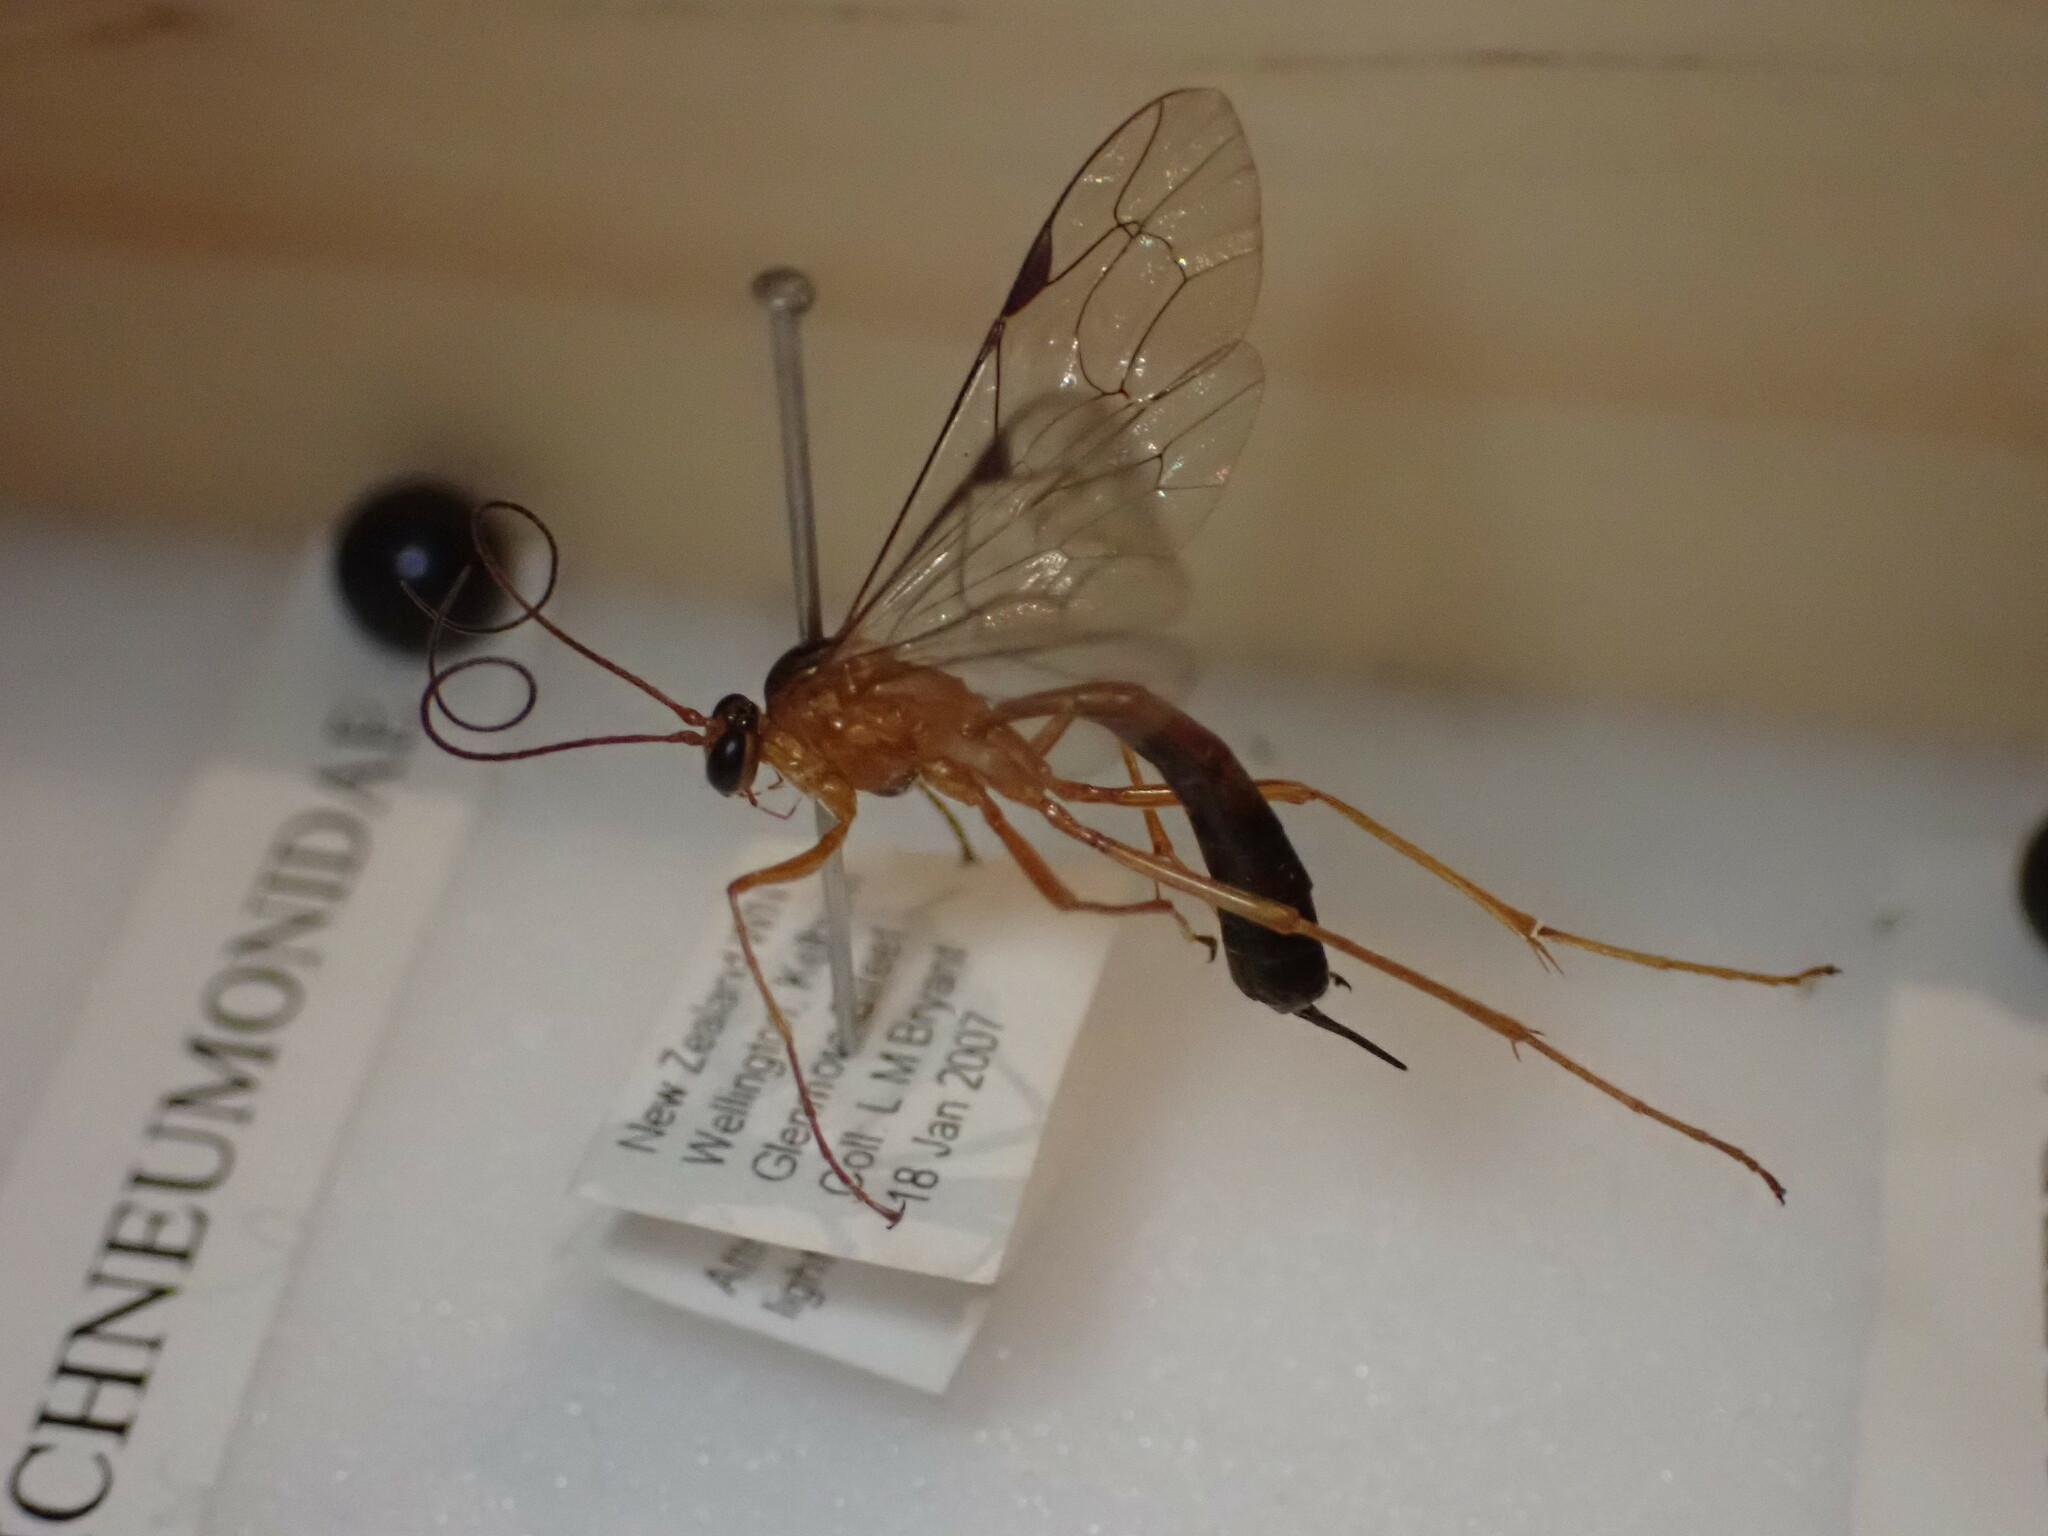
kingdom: Animalia
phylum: Arthropoda
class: Insecta
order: Hymenoptera
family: Ichneumonidae
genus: Netelia
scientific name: Netelia ephippiata
